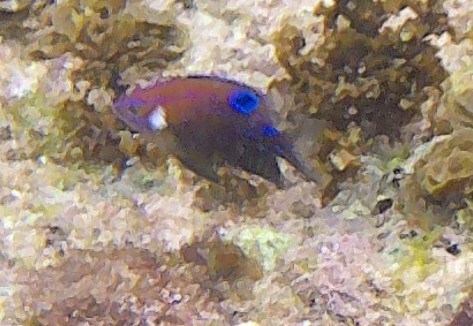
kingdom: Animalia
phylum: Chordata
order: Perciformes
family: Pomacentridae
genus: Parma
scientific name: Parma microlepis
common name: White-ear
